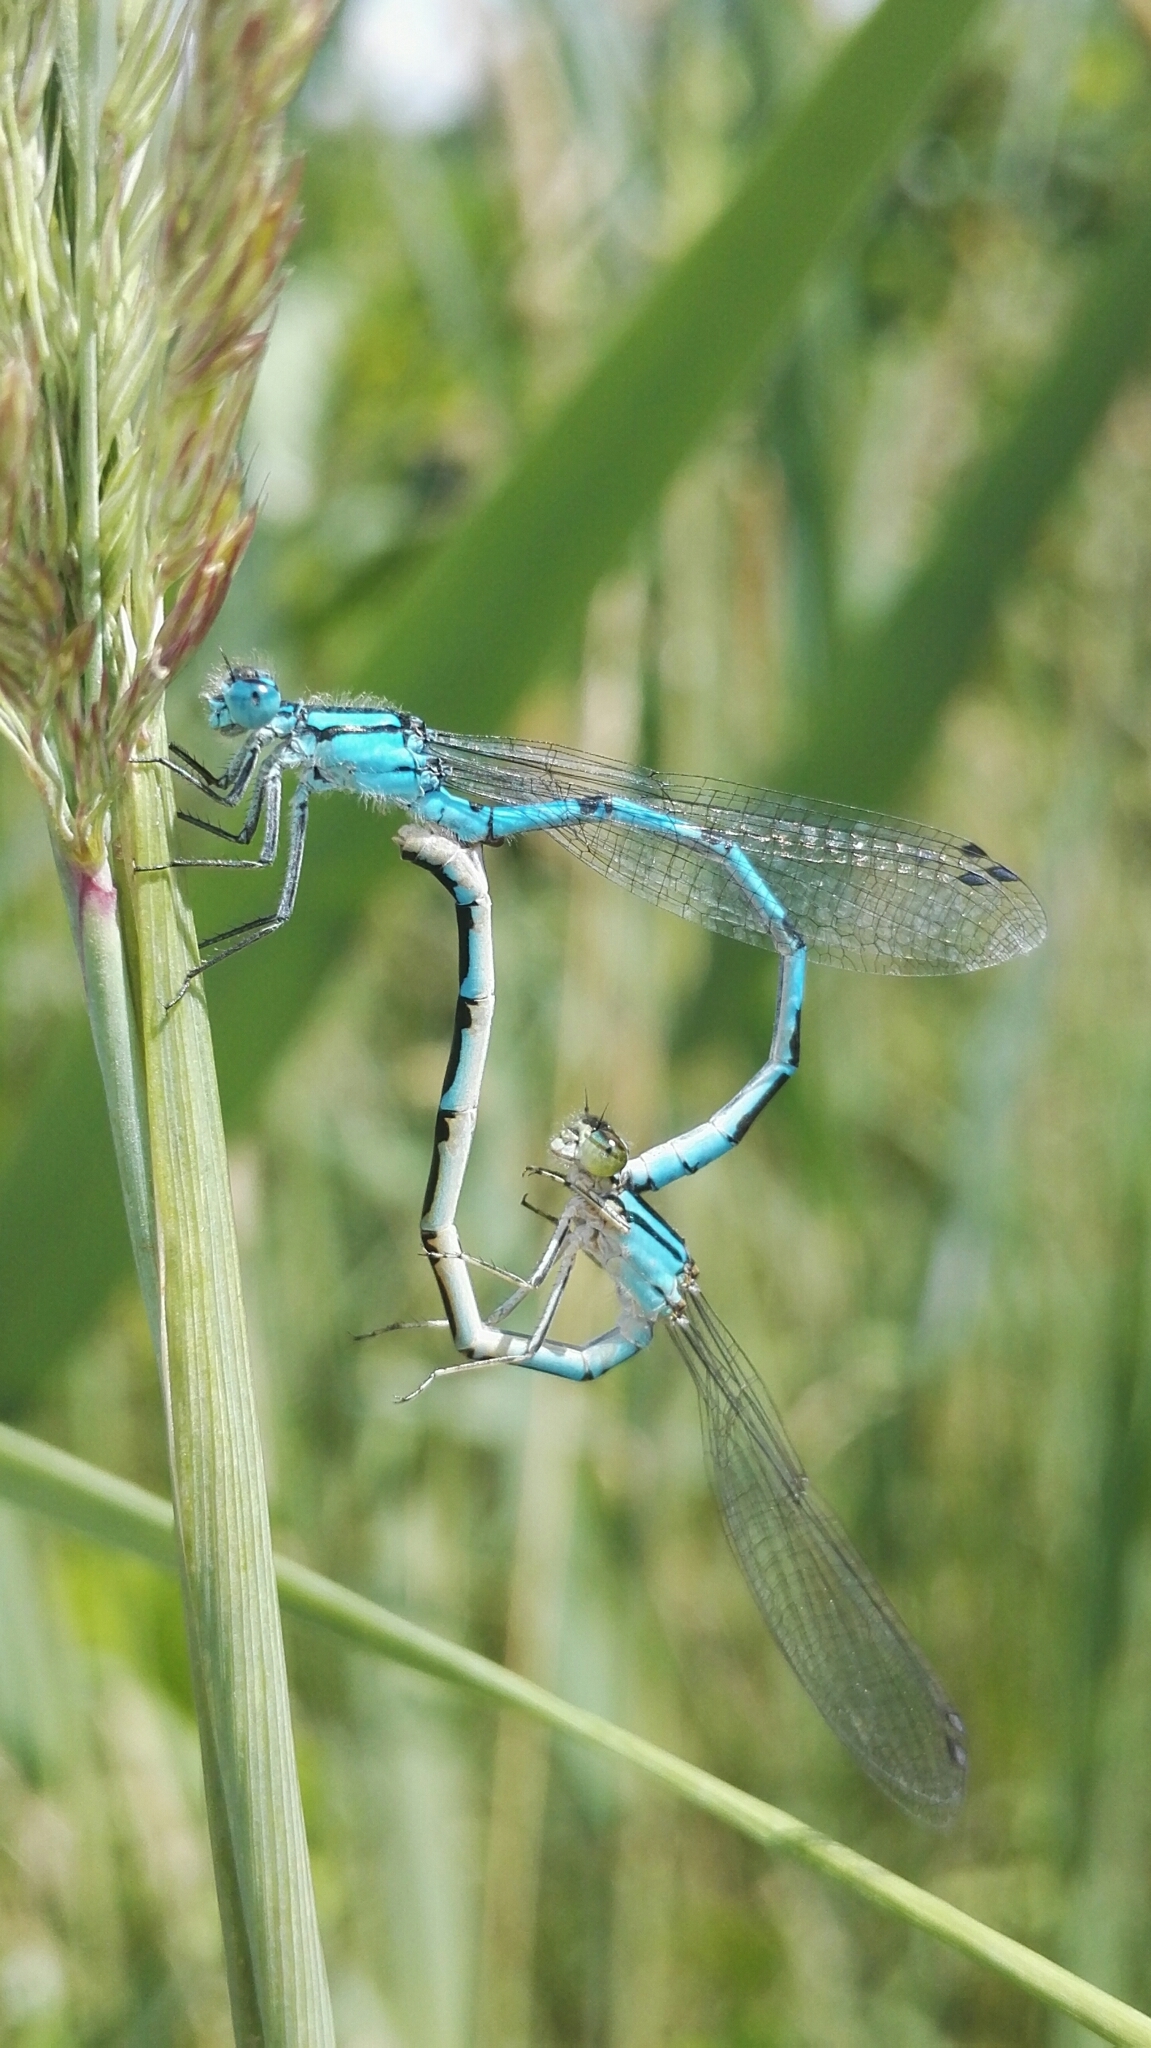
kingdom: Animalia
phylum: Arthropoda
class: Insecta
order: Odonata
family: Coenagrionidae
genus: Enallagma
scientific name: Enallagma cyathigerum
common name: Common blue damselfly
